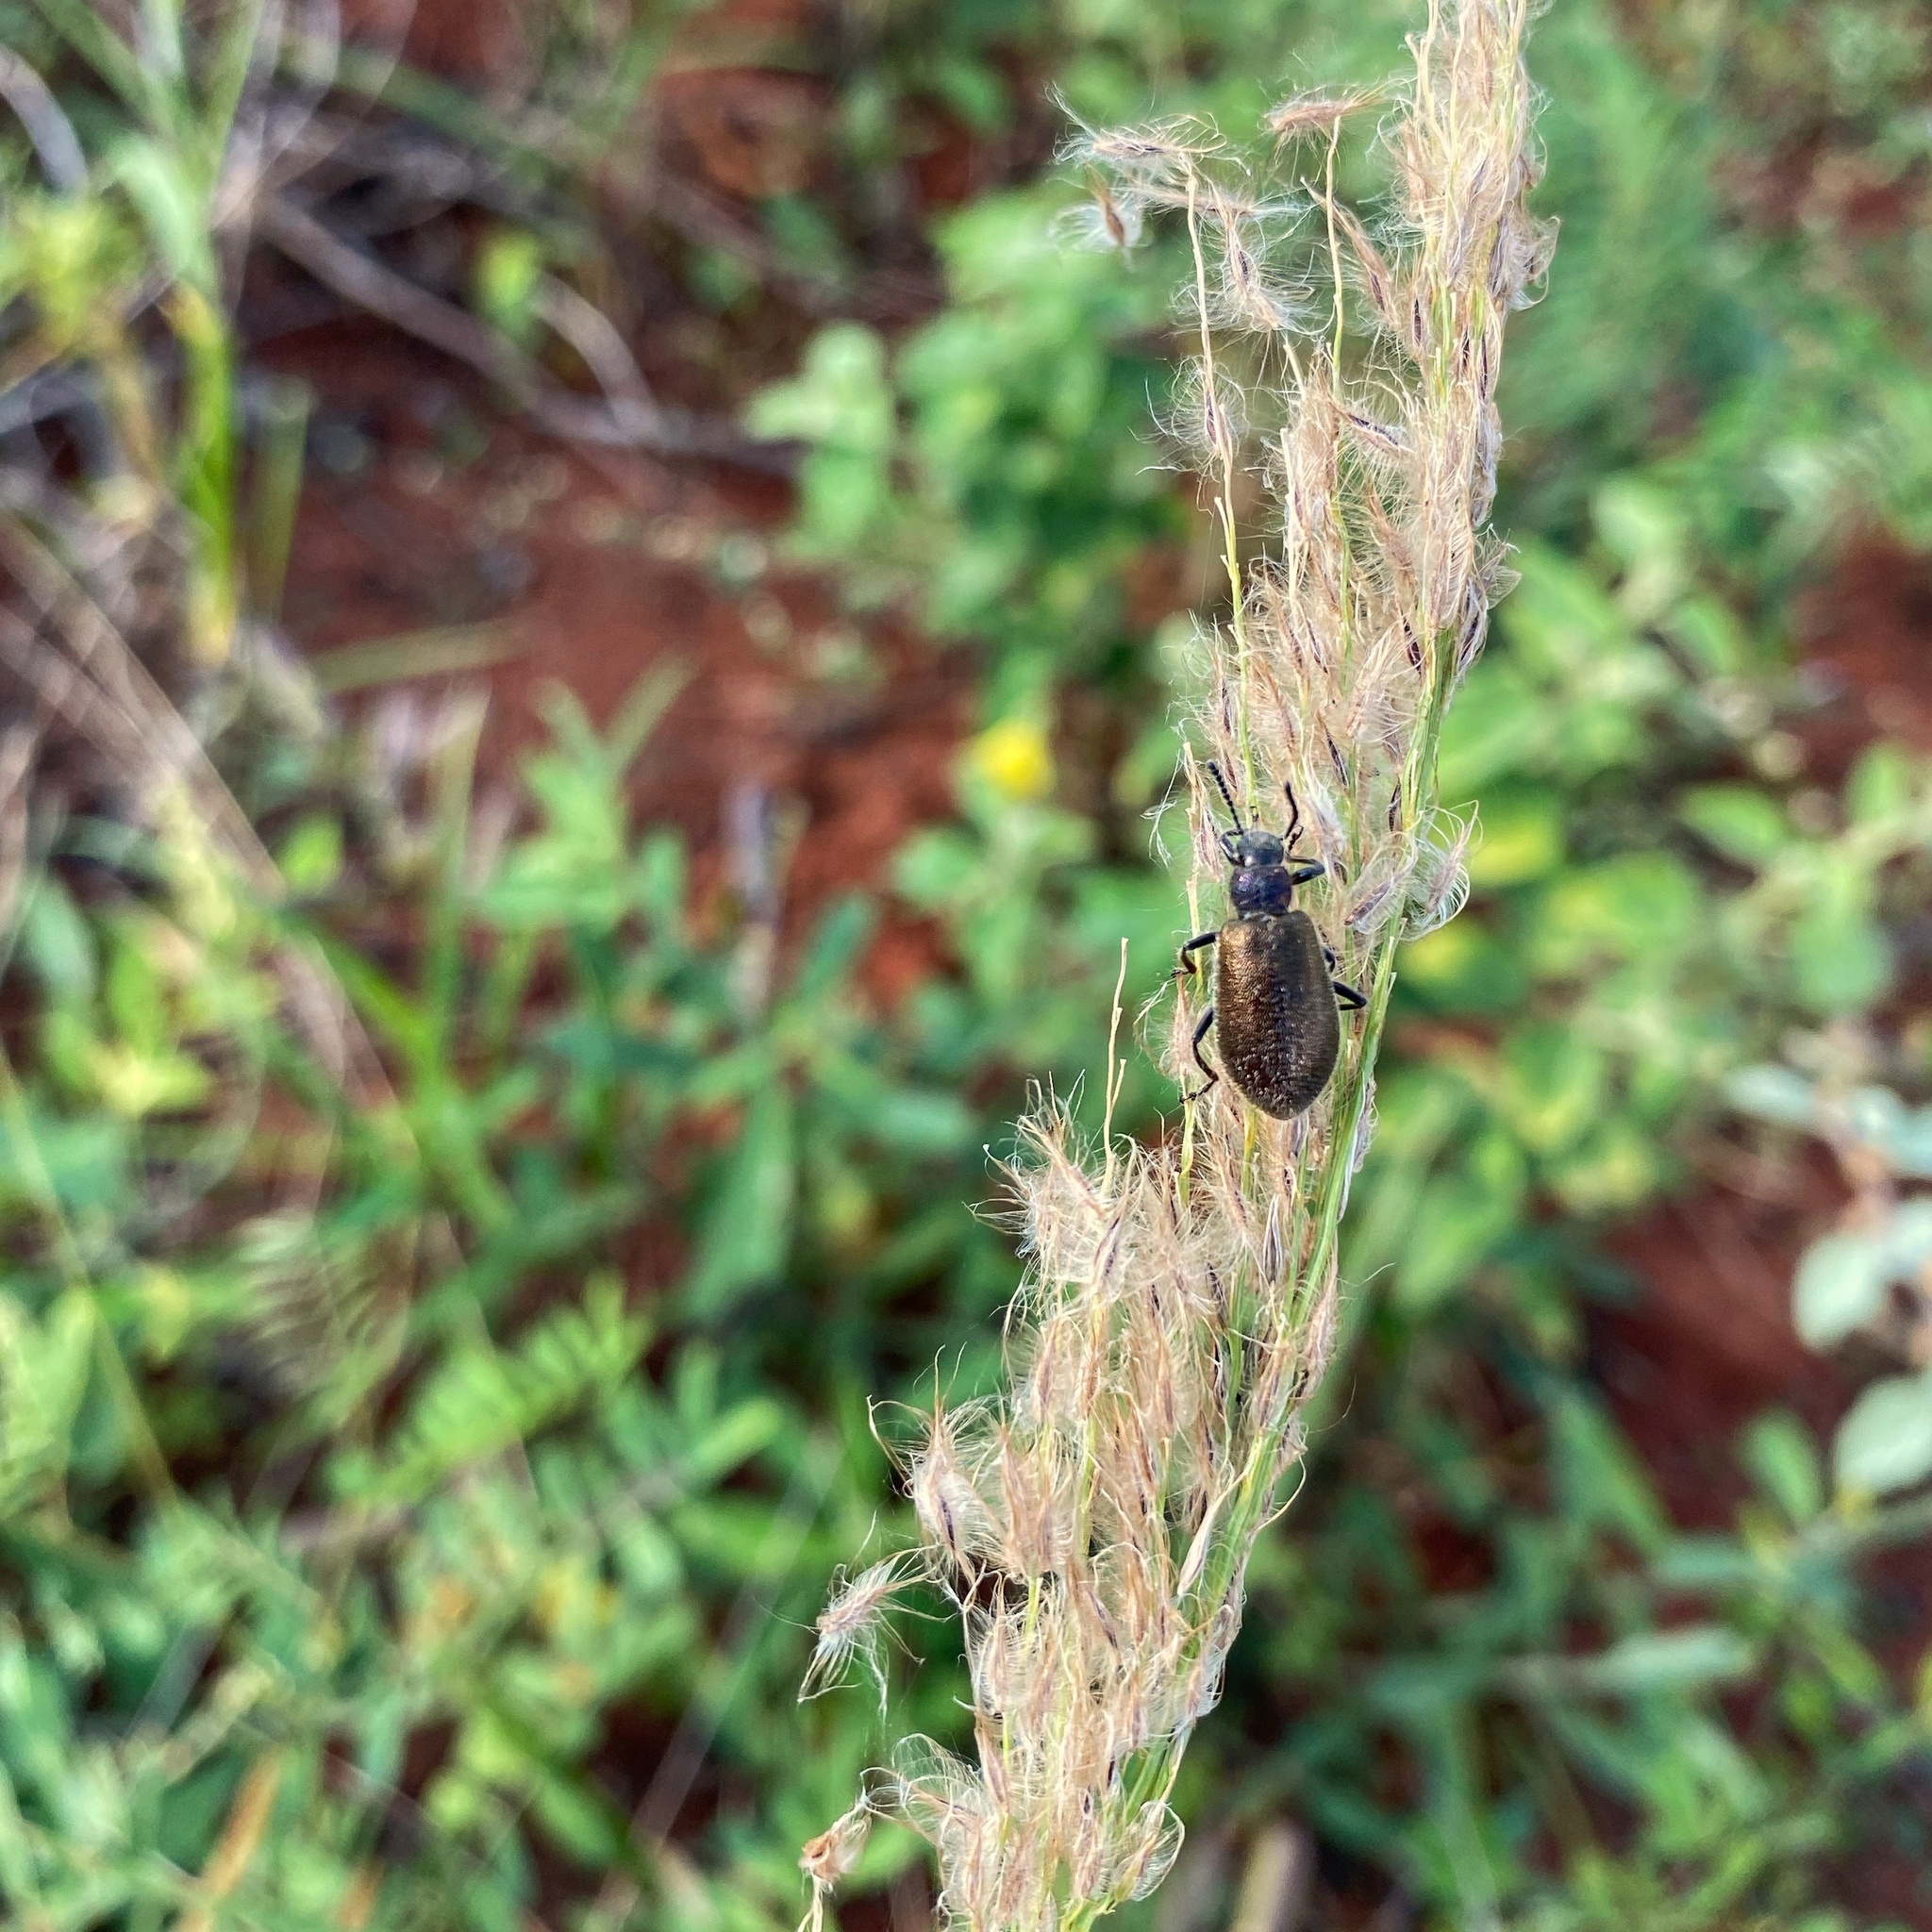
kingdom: Animalia
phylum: Arthropoda
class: Insecta
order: Coleoptera
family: Tenebrionidae
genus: Lagria
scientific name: Lagria villosa
